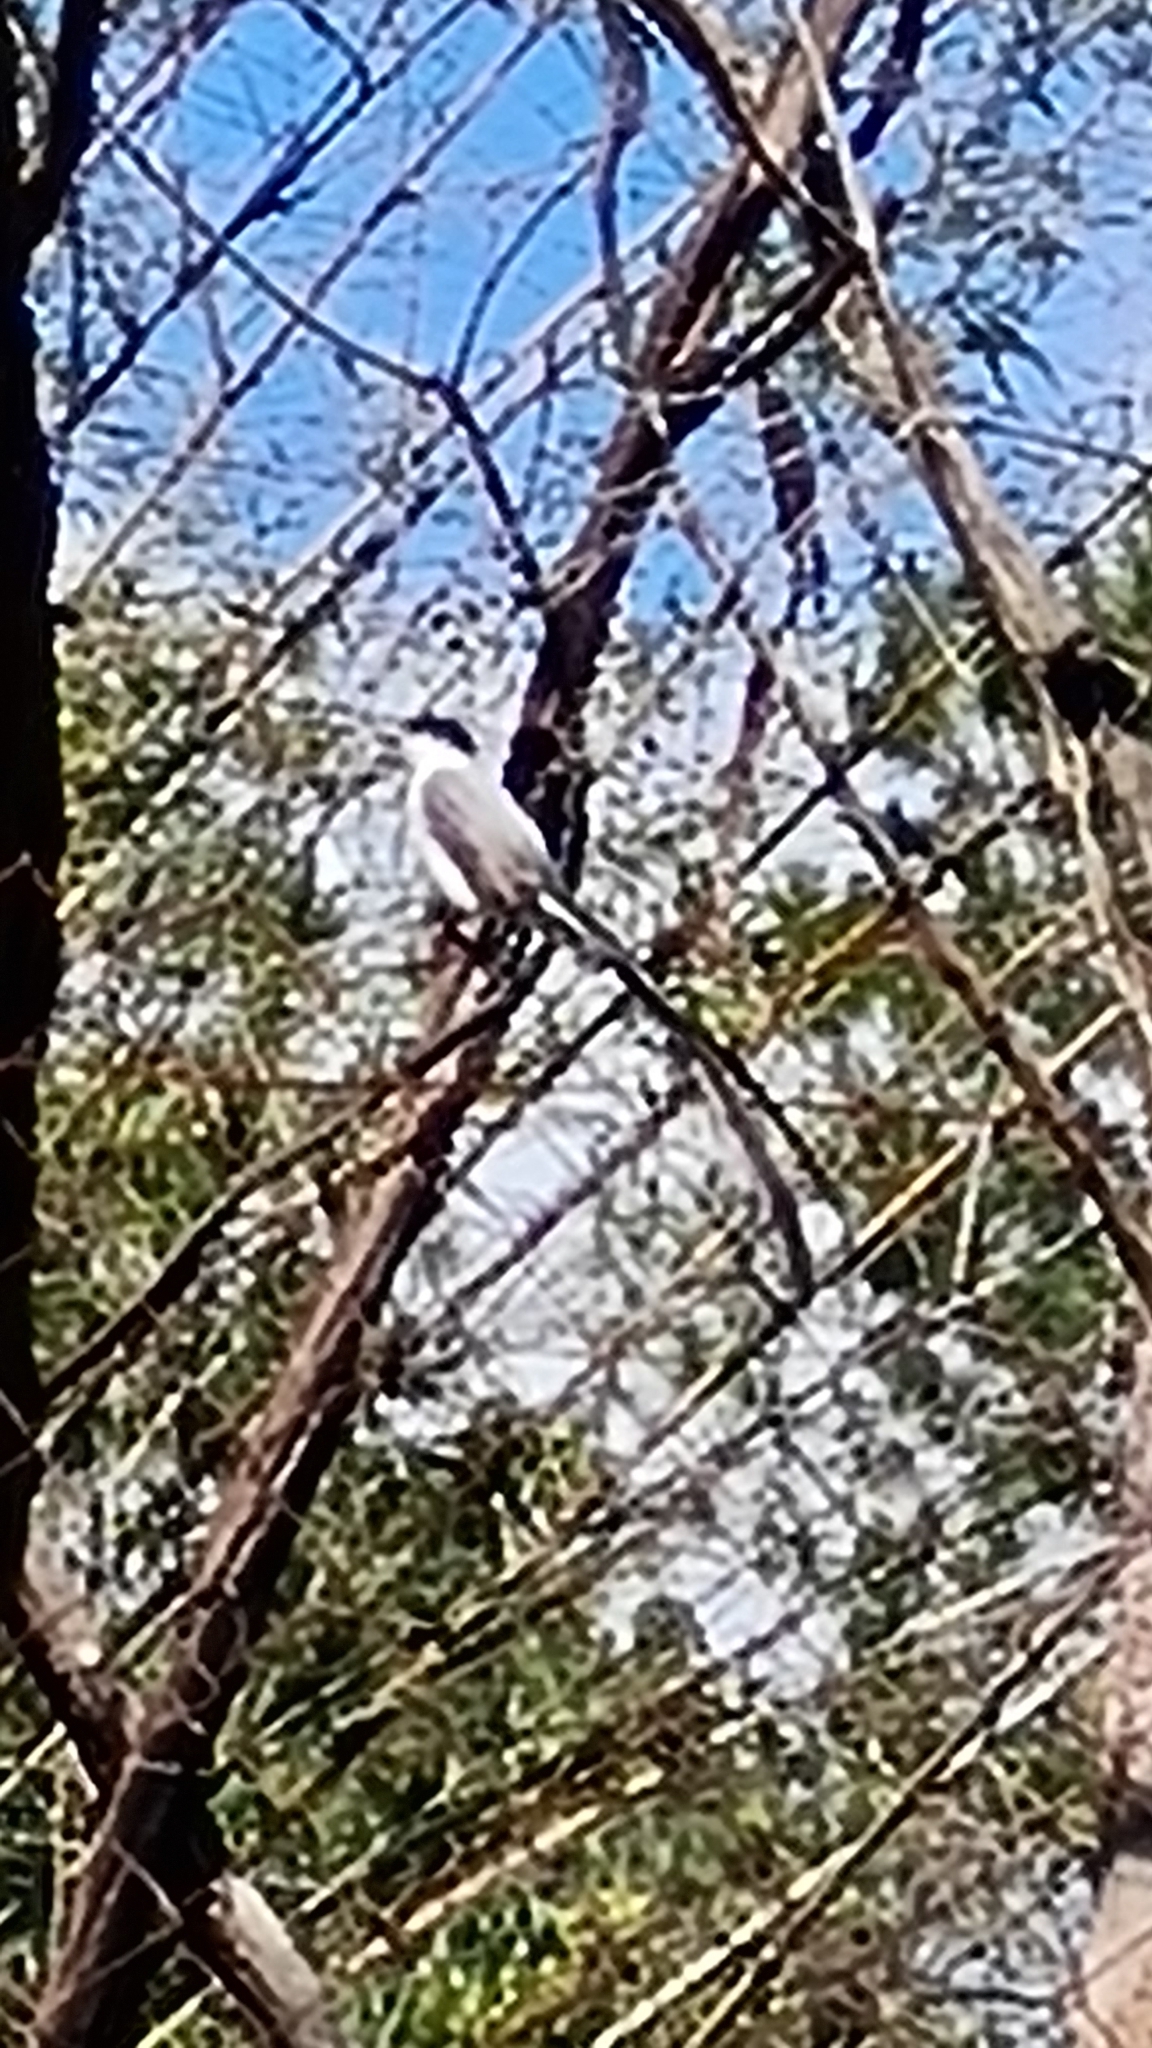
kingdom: Animalia
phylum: Chordata
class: Aves
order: Passeriformes
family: Tyrannidae
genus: Tyrannus
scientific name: Tyrannus savana
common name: Fork-tailed flycatcher
